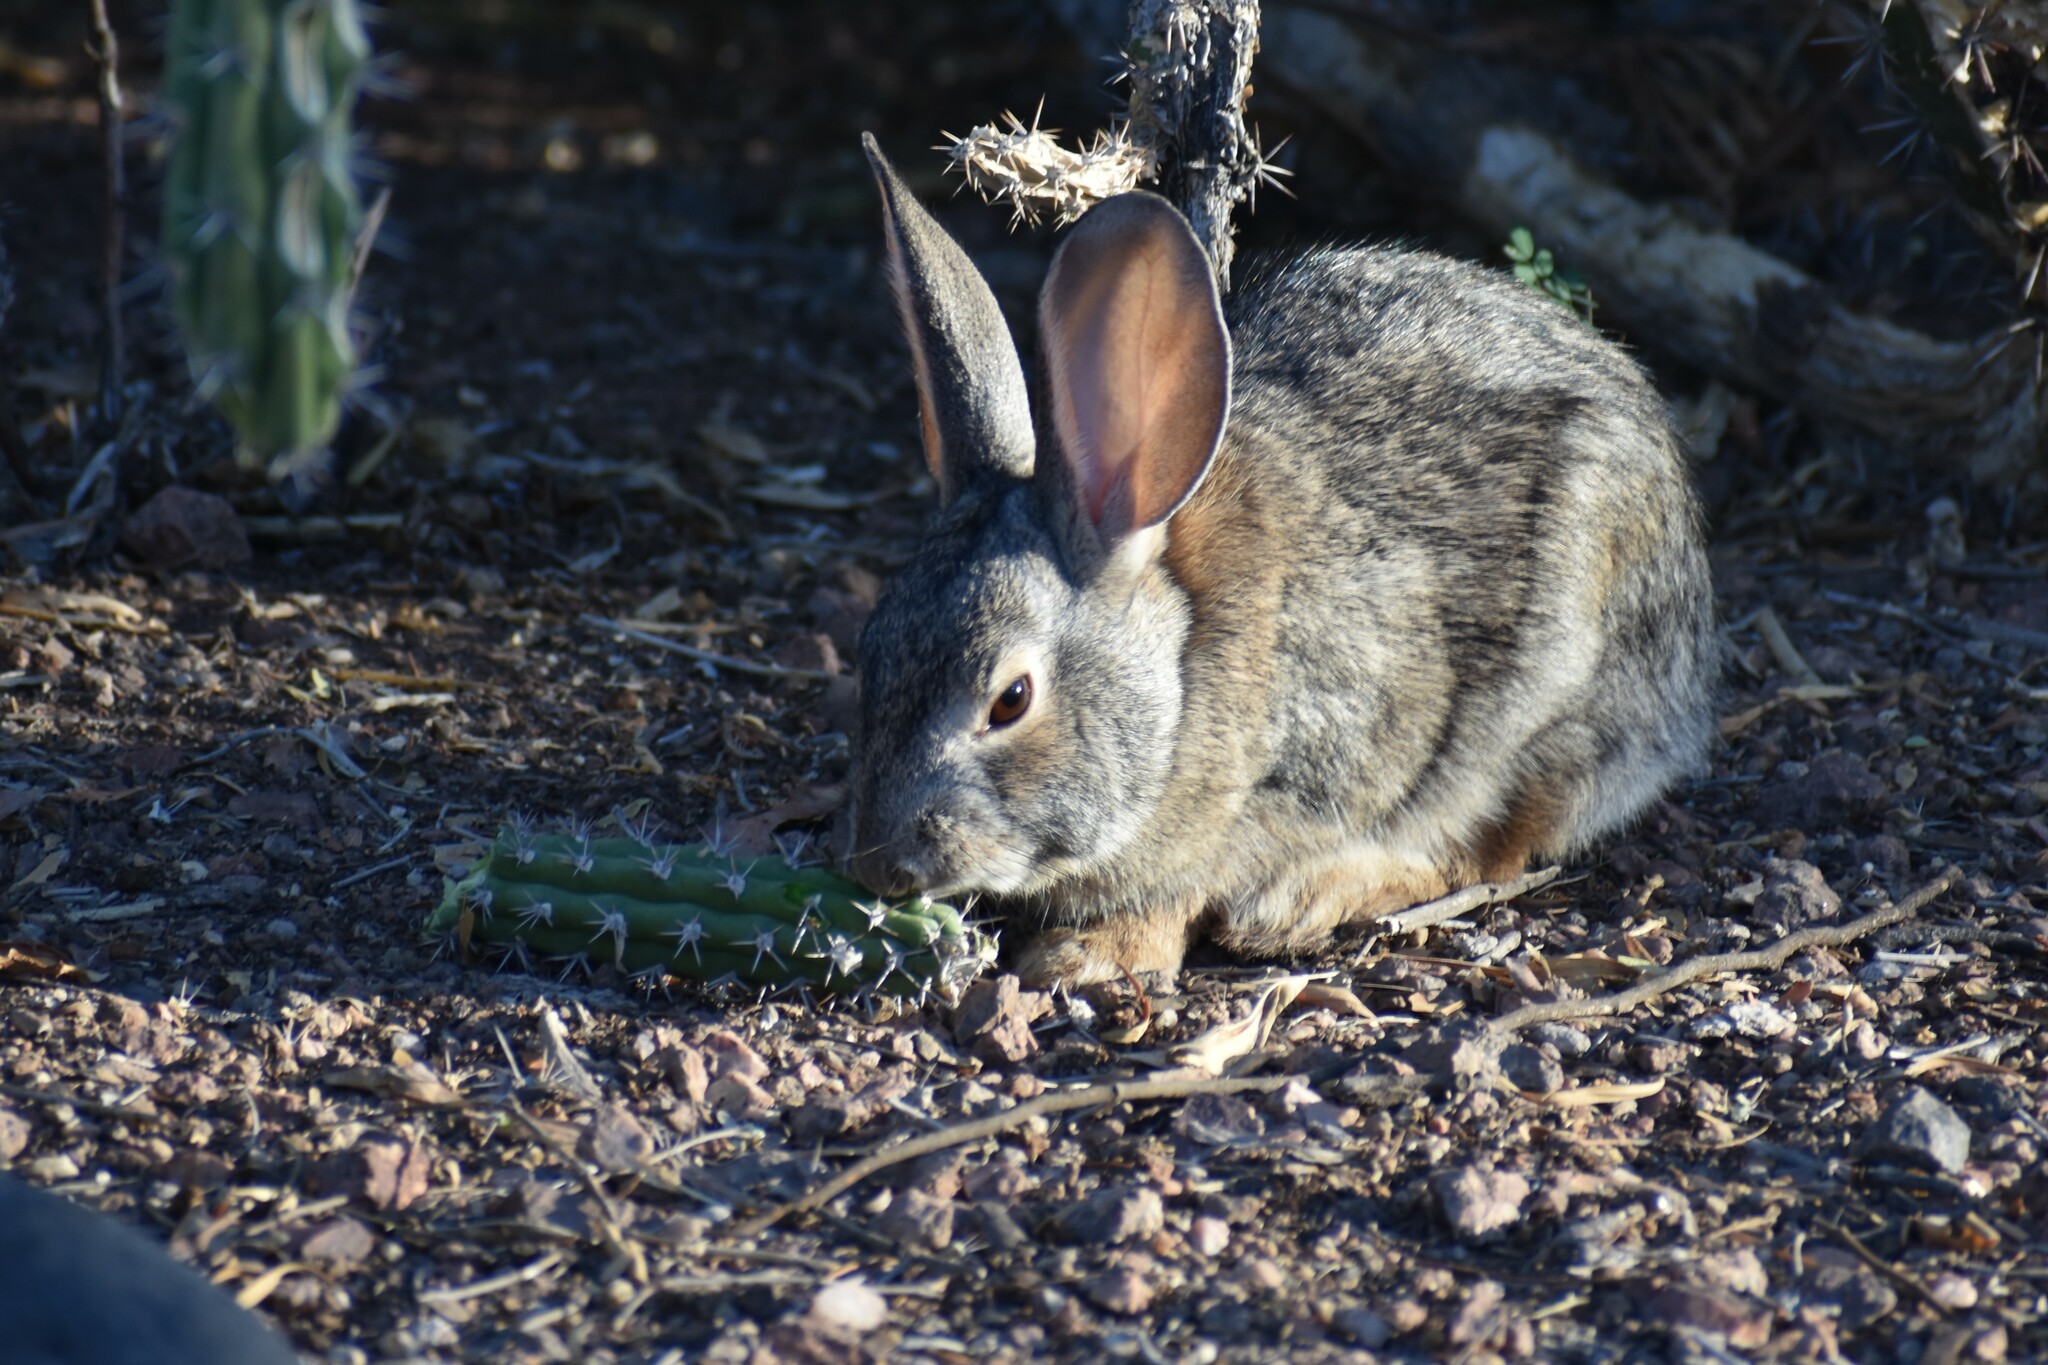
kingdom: Animalia
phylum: Chordata
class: Mammalia
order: Lagomorpha
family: Leporidae
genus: Sylvilagus
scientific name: Sylvilagus audubonii
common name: Desert cottontail
